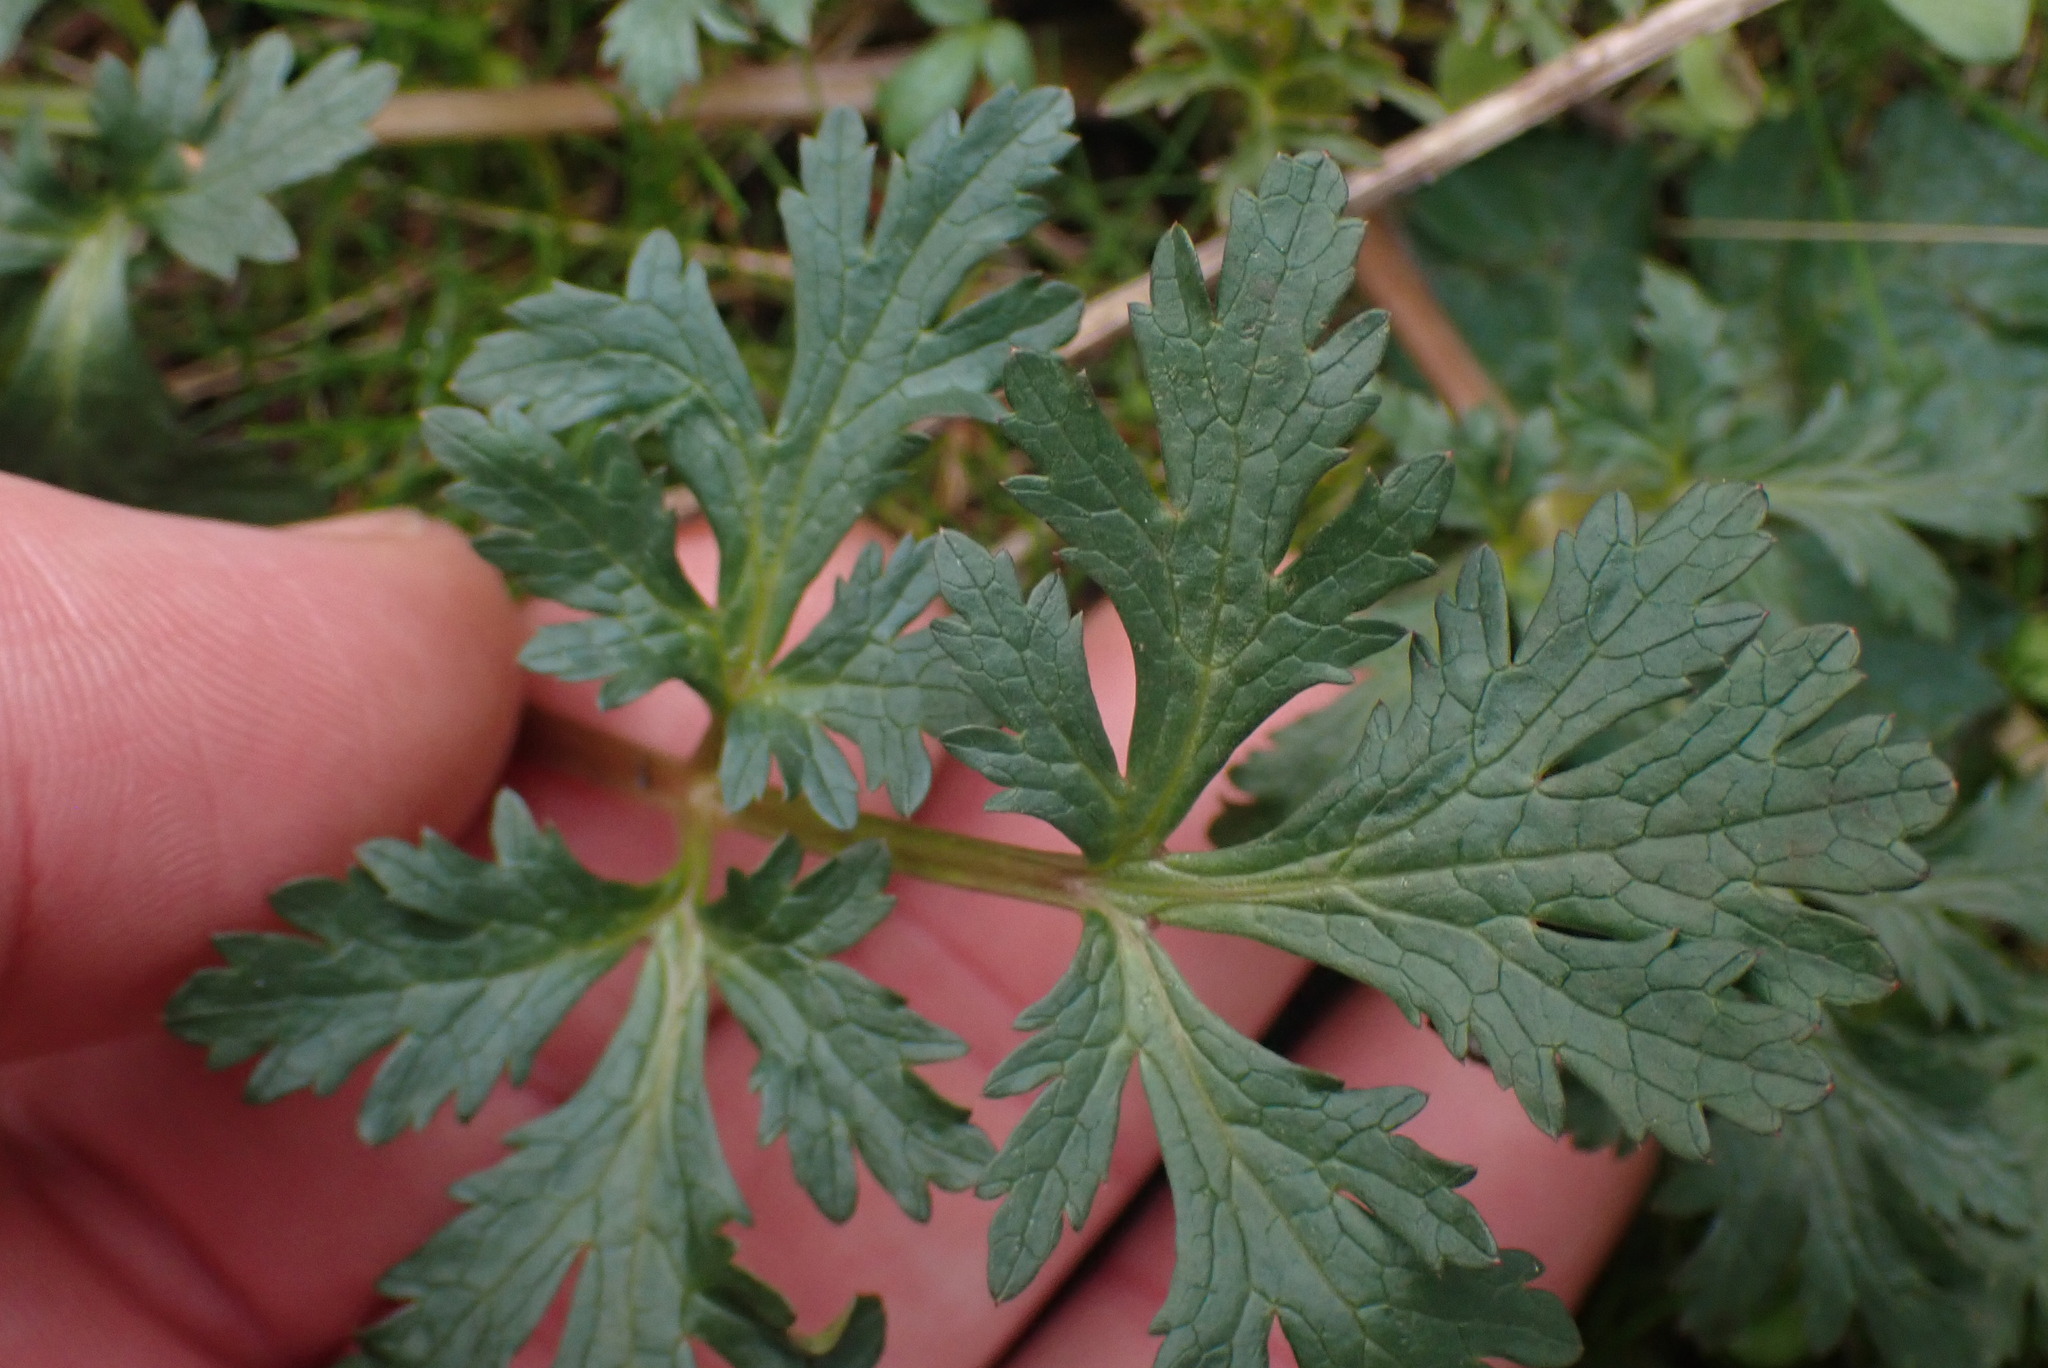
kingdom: Plantae
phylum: Tracheophyta
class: Magnoliopsida
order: Apiales
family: Apiaceae
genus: Sanicula
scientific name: Sanicula graveolens
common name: Sierra sanicle
